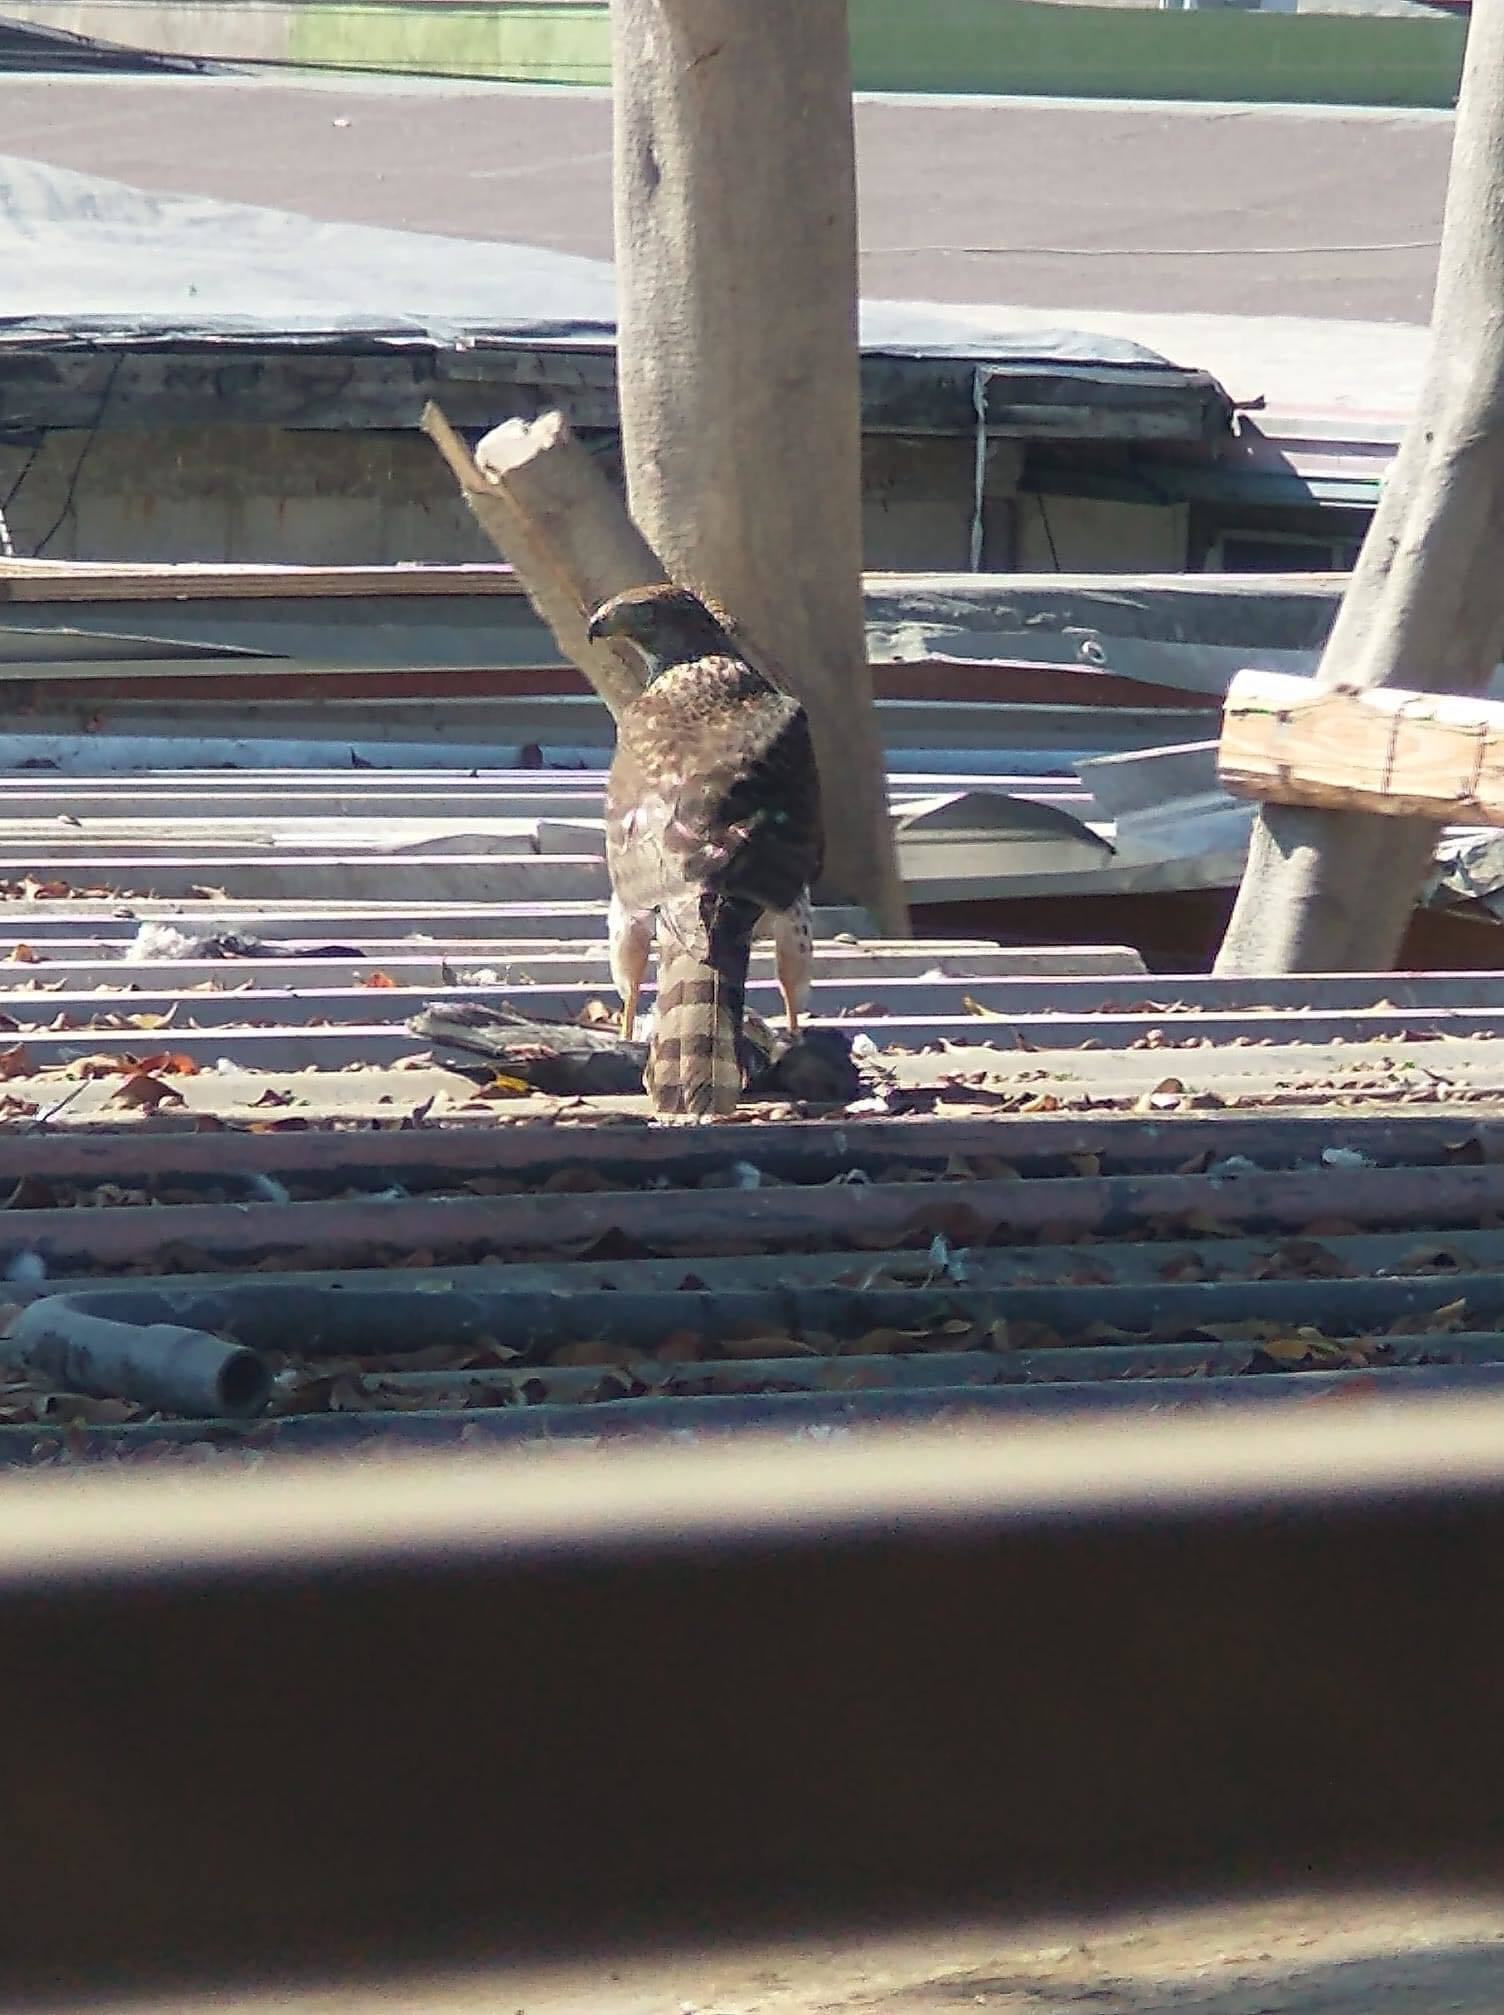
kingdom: Animalia
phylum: Chordata
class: Aves
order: Accipitriformes
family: Accipitridae
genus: Accipiter
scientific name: Accipiter cooperii
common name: Cooper's hawk
